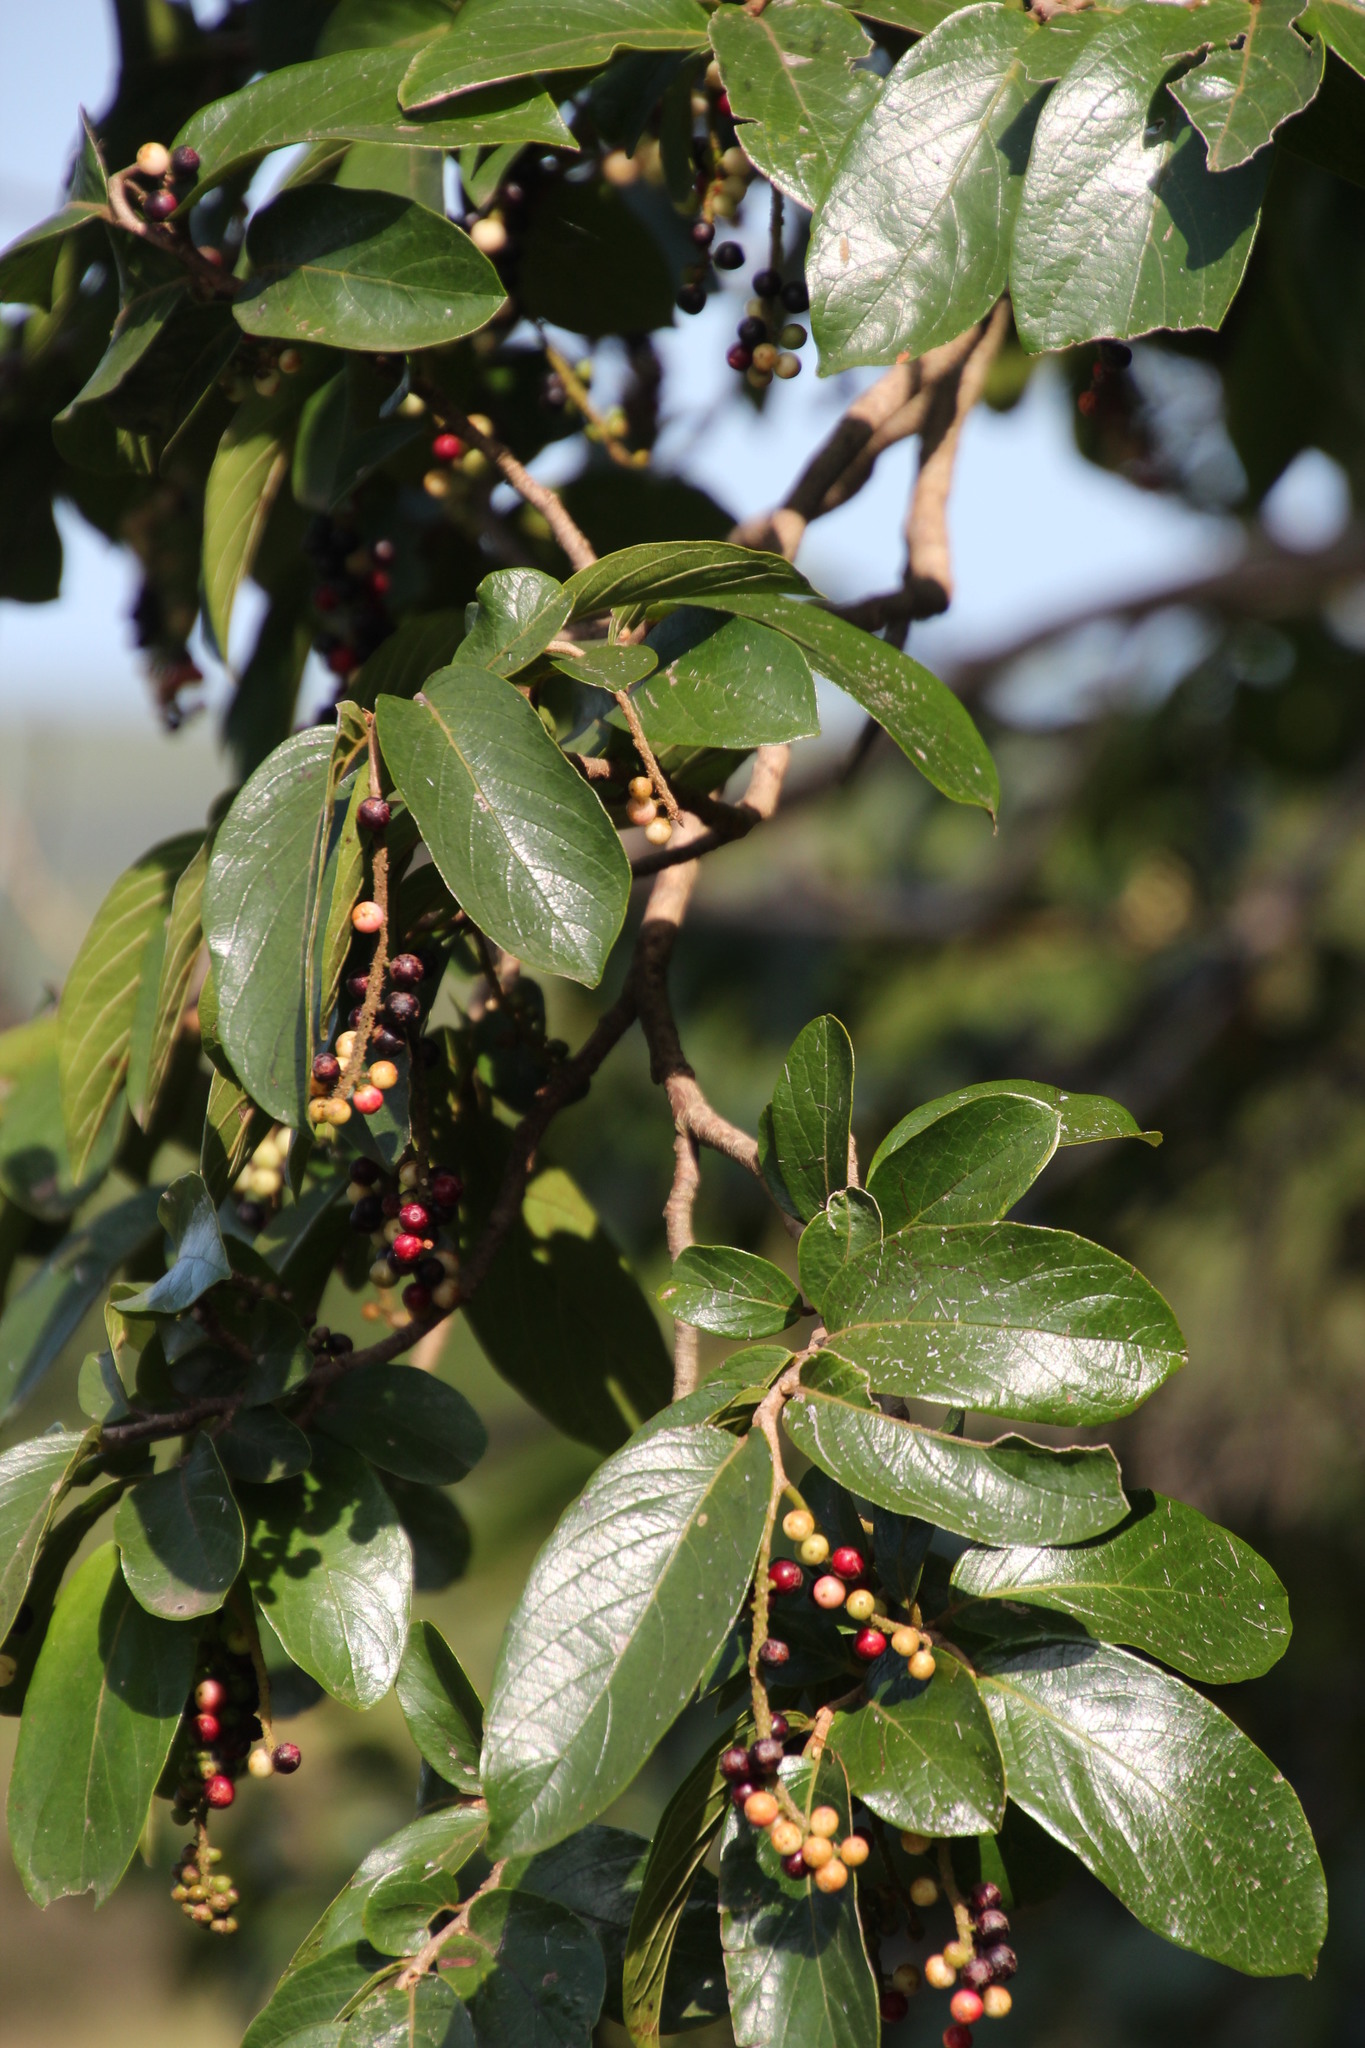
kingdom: Plantae
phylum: Tracheophyta
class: Magnoliopsida
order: Malpighiales
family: Phyllanthaceae
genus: Antidesma
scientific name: Antidesma venosum
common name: Tassel-berry
